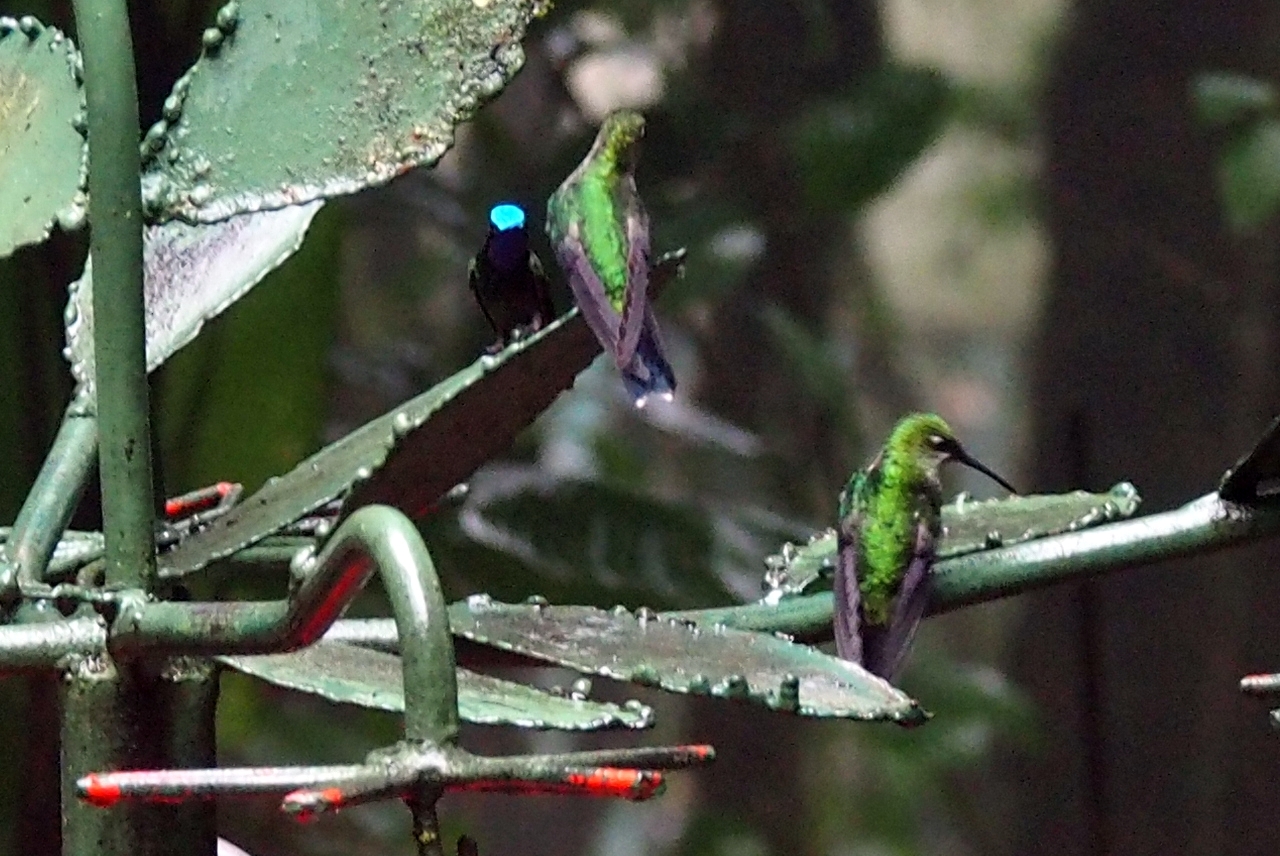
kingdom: Animalia
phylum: Chordata
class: Aves
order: Apodiformes
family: Trochilidae
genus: Lampornis
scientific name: Lampornis calolaemus
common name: Purple-throated mountain-gem
